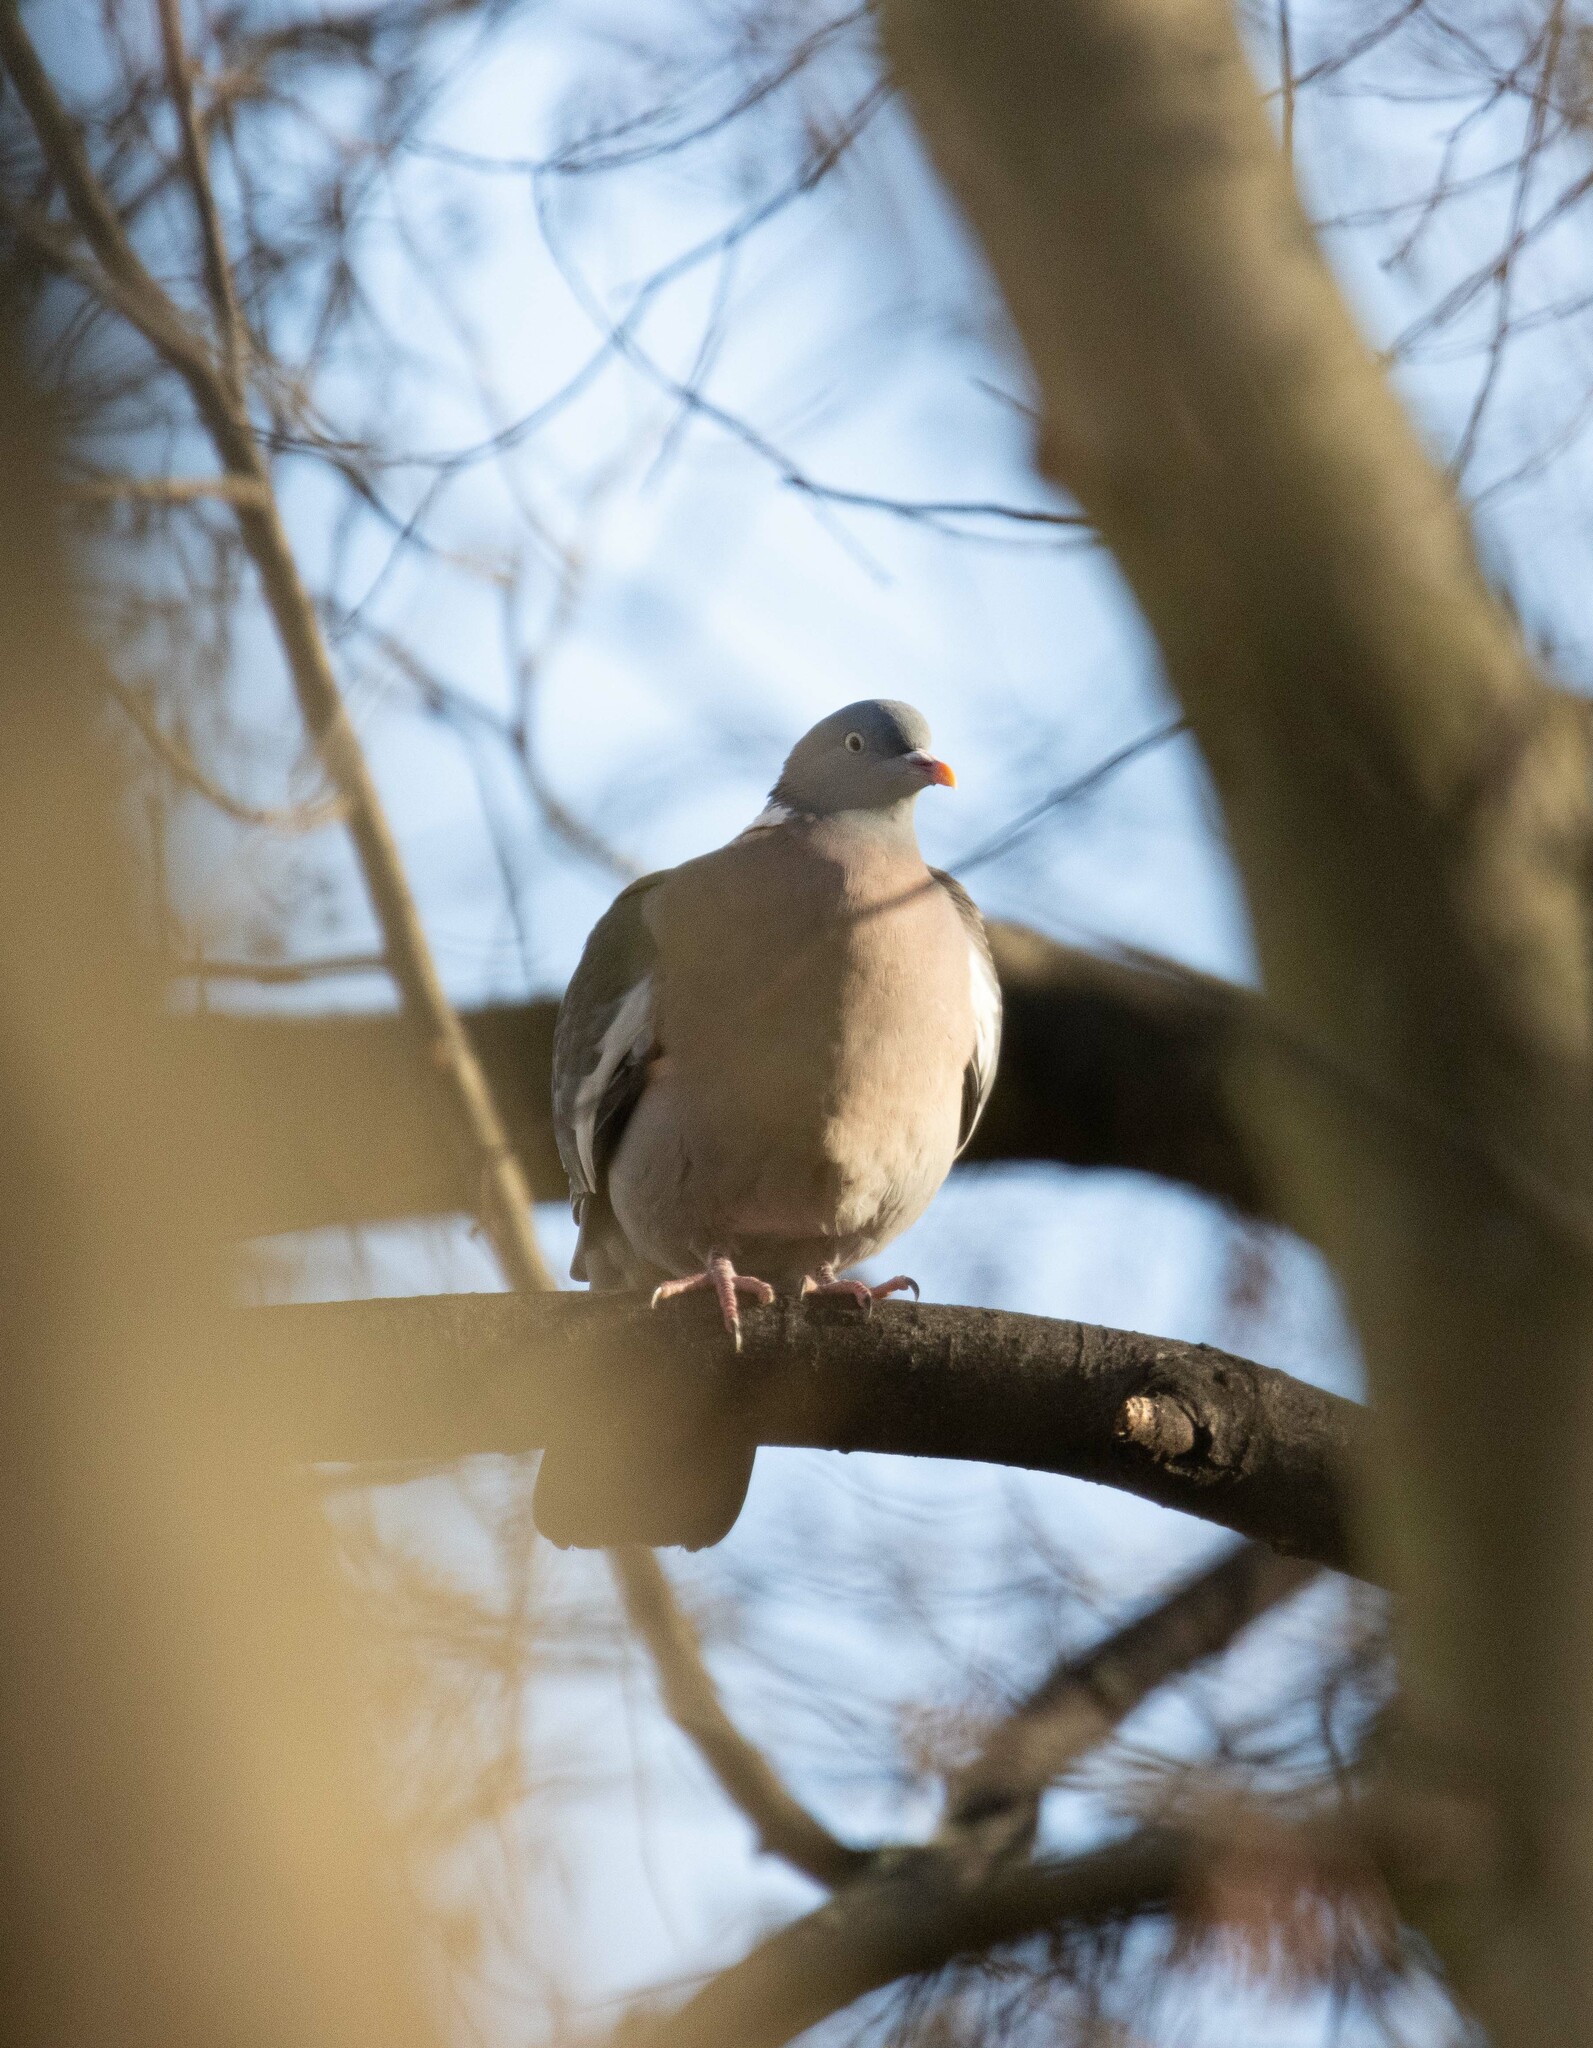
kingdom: Animalia
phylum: Chordata
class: Aves
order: Columbiformes
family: Columbidae
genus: Columba
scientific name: Columba palumbus
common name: Common wood pigeon
